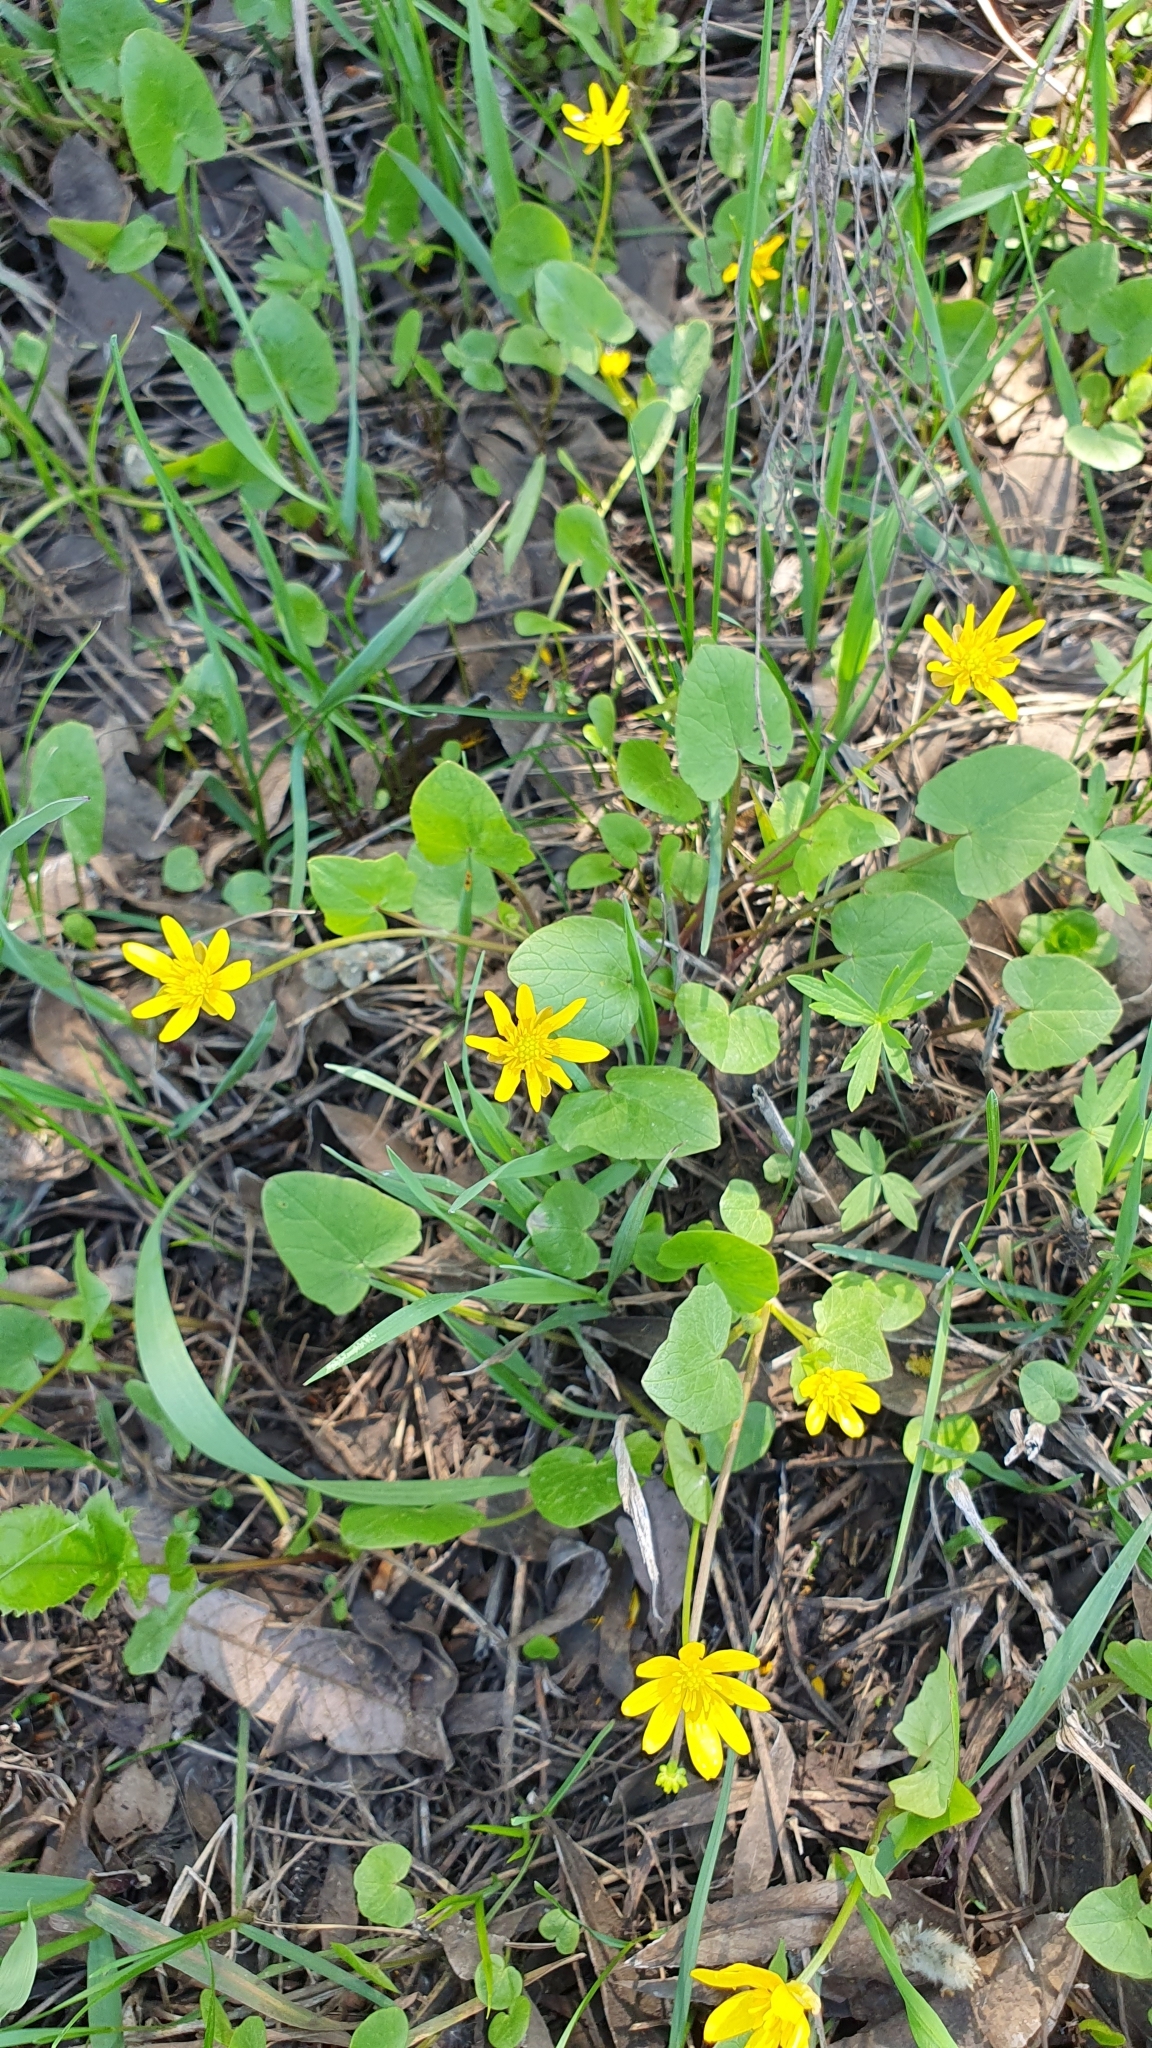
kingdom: Plantae
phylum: Tracheophyta
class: Magnoliopsida
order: Ranunculales
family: Ranunculaceae
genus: Ficaria
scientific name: Ficaria verna
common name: Lesser celandine
